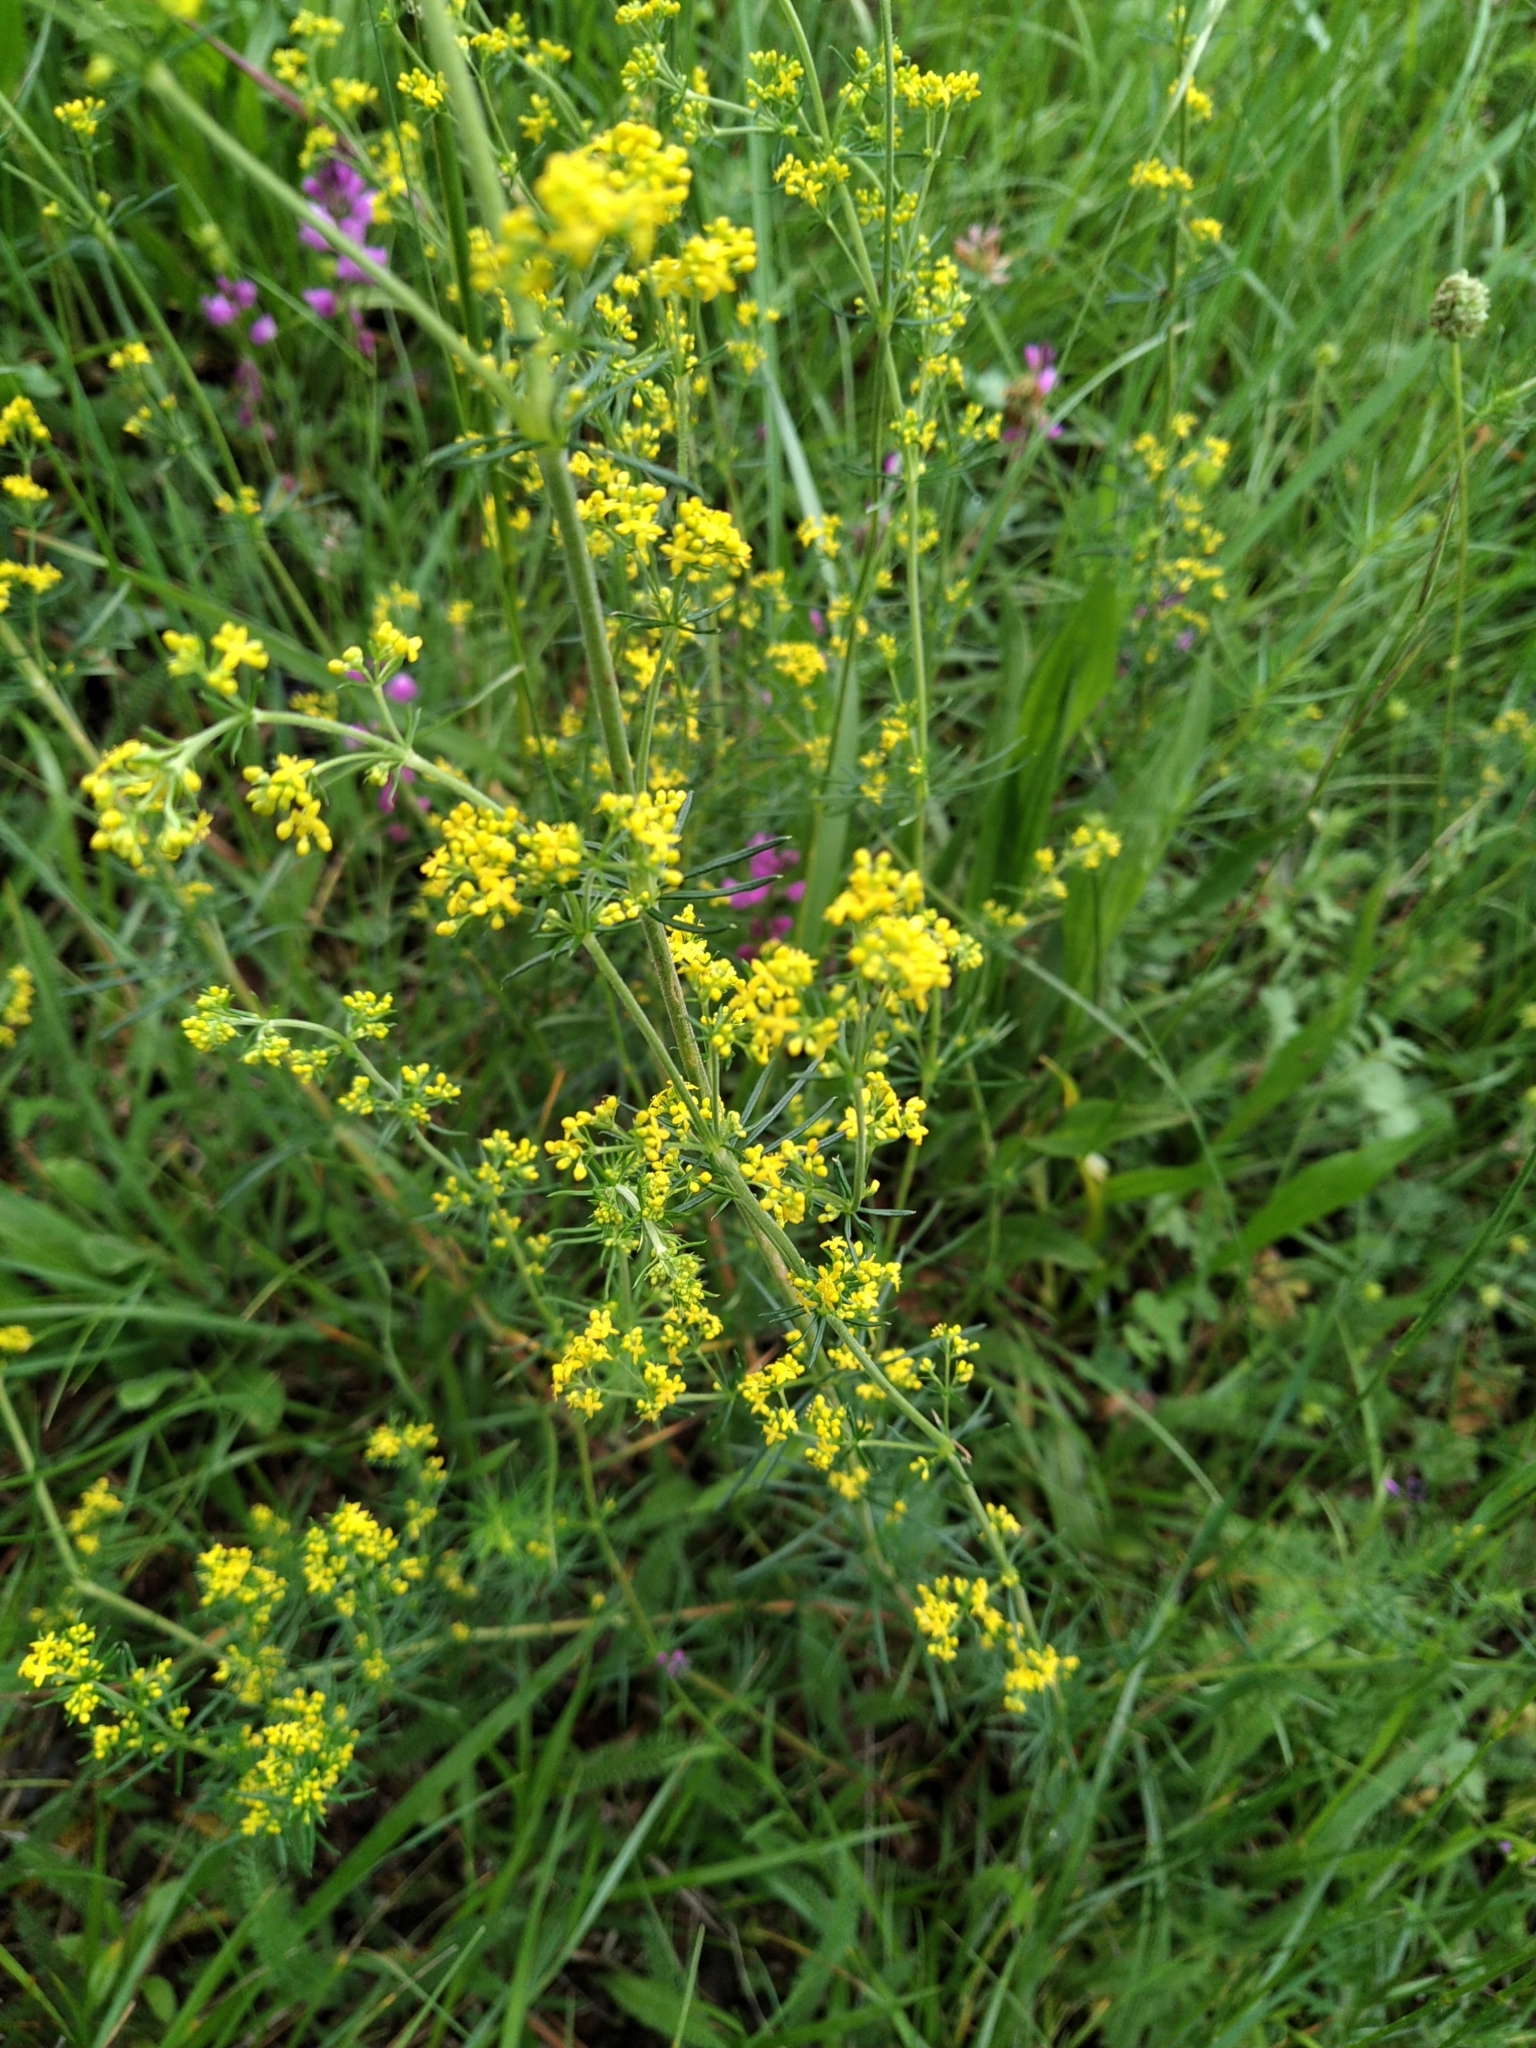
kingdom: Plantae
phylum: Tracheophyta
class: Magnoliopsida
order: Gentianales
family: Rubiaceae
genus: Galium
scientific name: Galium verum
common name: Lady's bedstraw
